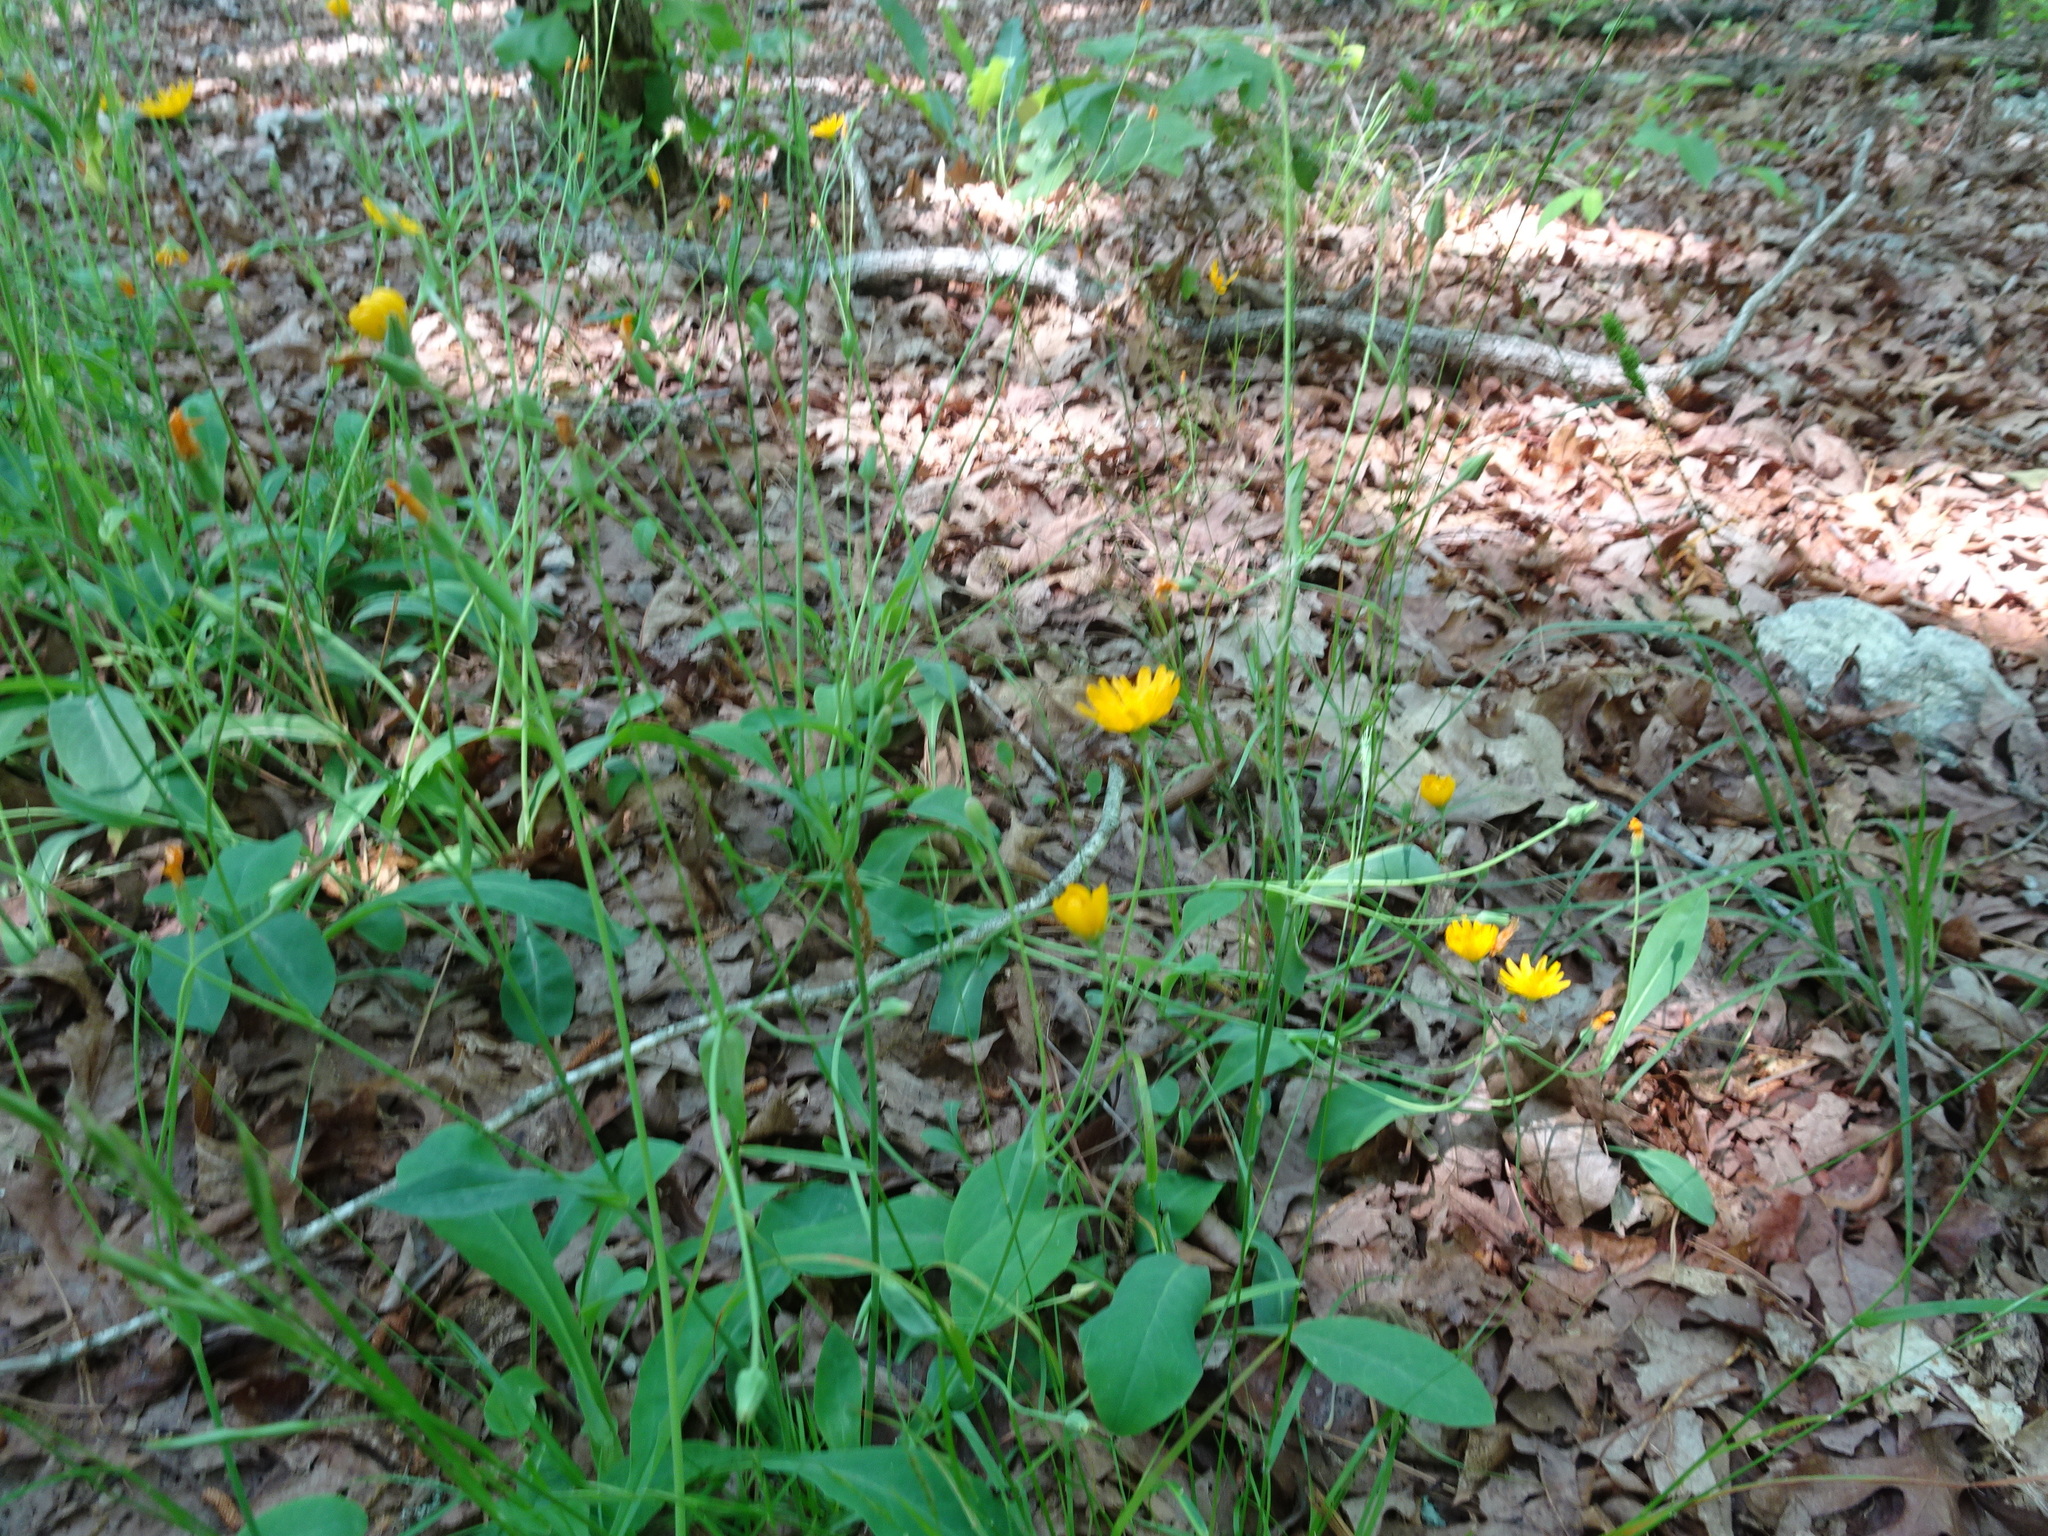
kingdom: Plantae
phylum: Tracheophyta
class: Magnoliopsida
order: Asterales
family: Asteraceae
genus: Krigia
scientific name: Krigia biflora
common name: Orange dwarf-dandelion
